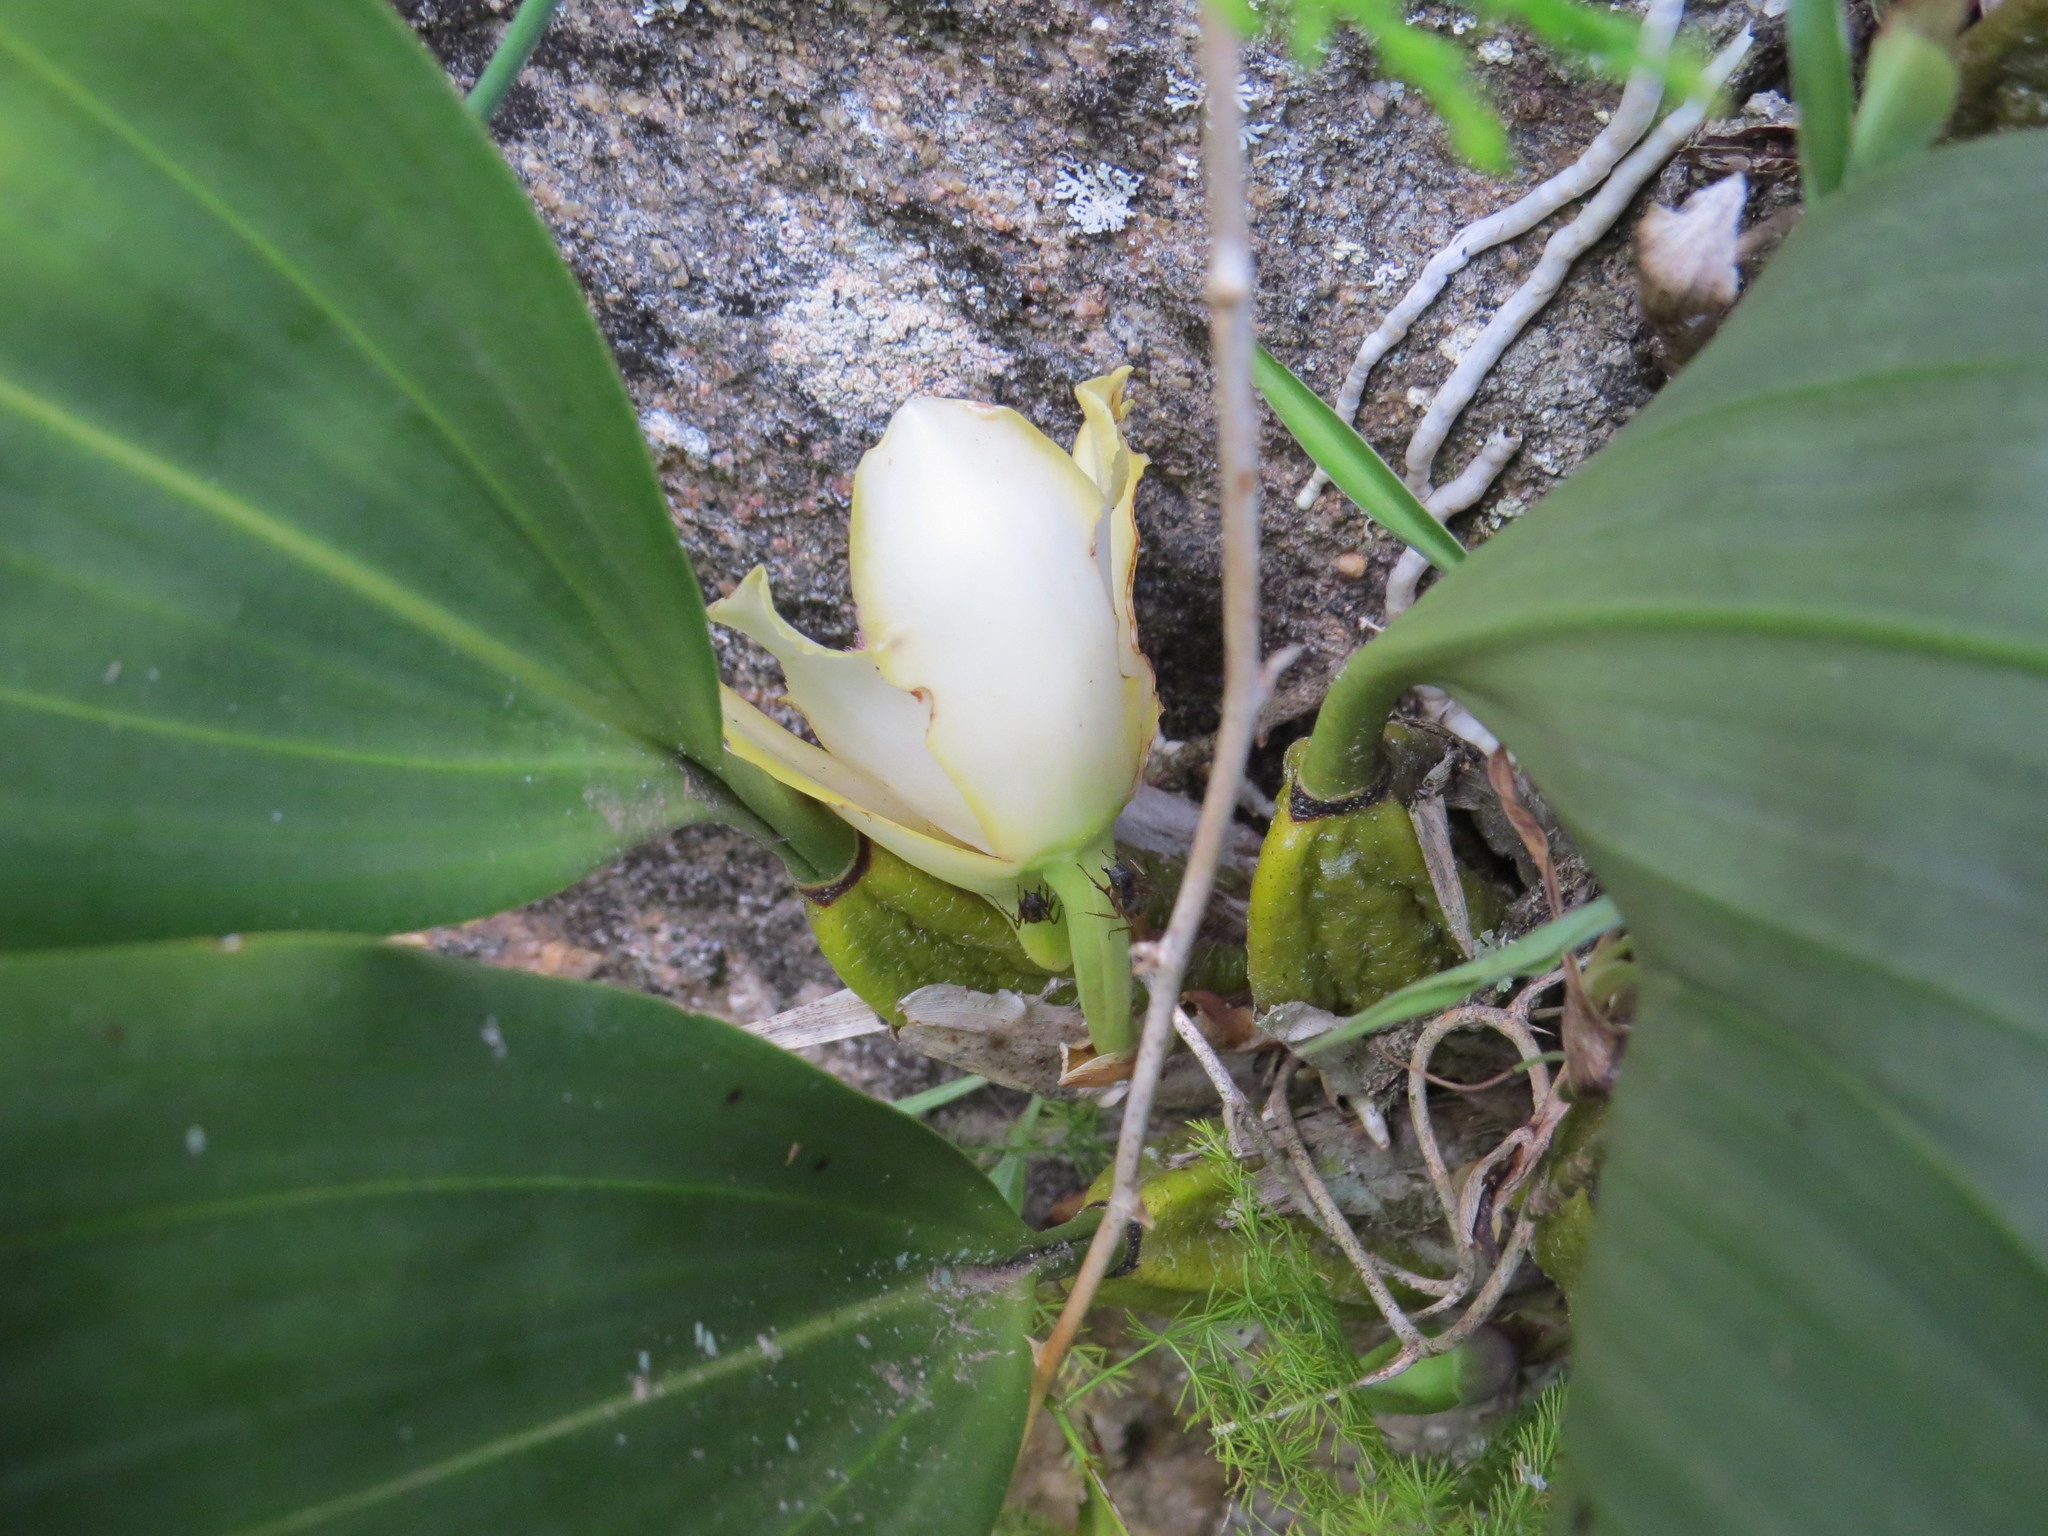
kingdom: Plantae
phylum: Tracheophyta
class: Liliopsida
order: Asparagales
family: Orchidaceae
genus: Bifrenaria
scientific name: Bifrenaria harrisoniae
